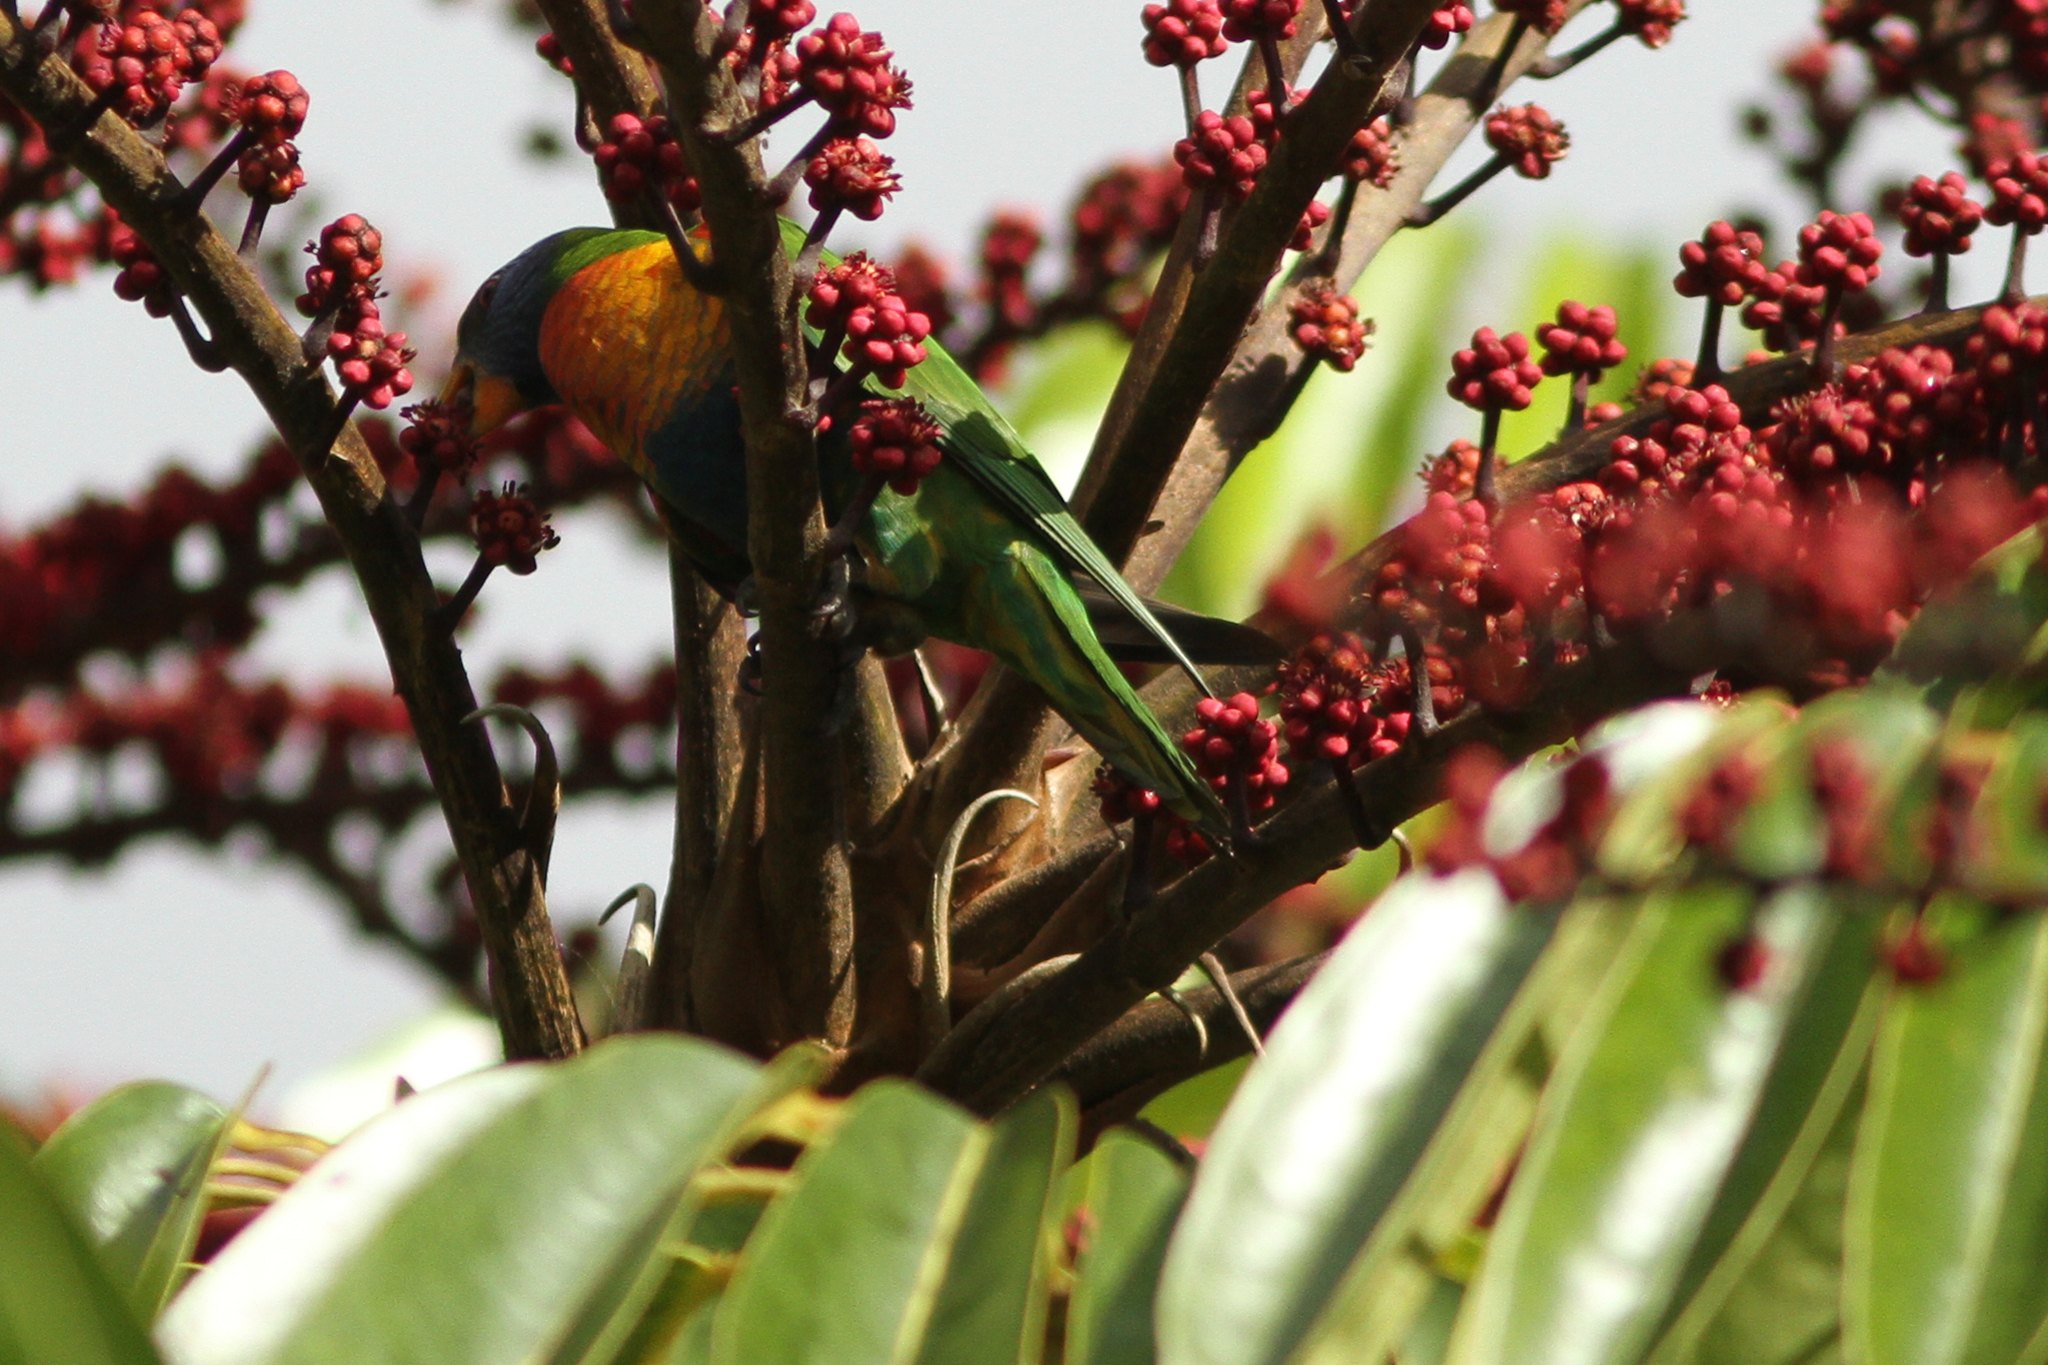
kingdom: Animalia
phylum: Chordata
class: Aves
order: Psittaciformes
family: Psittacidae
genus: Trichoglossus
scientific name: Trichoglossus haematodus
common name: Coconut lorikeet
